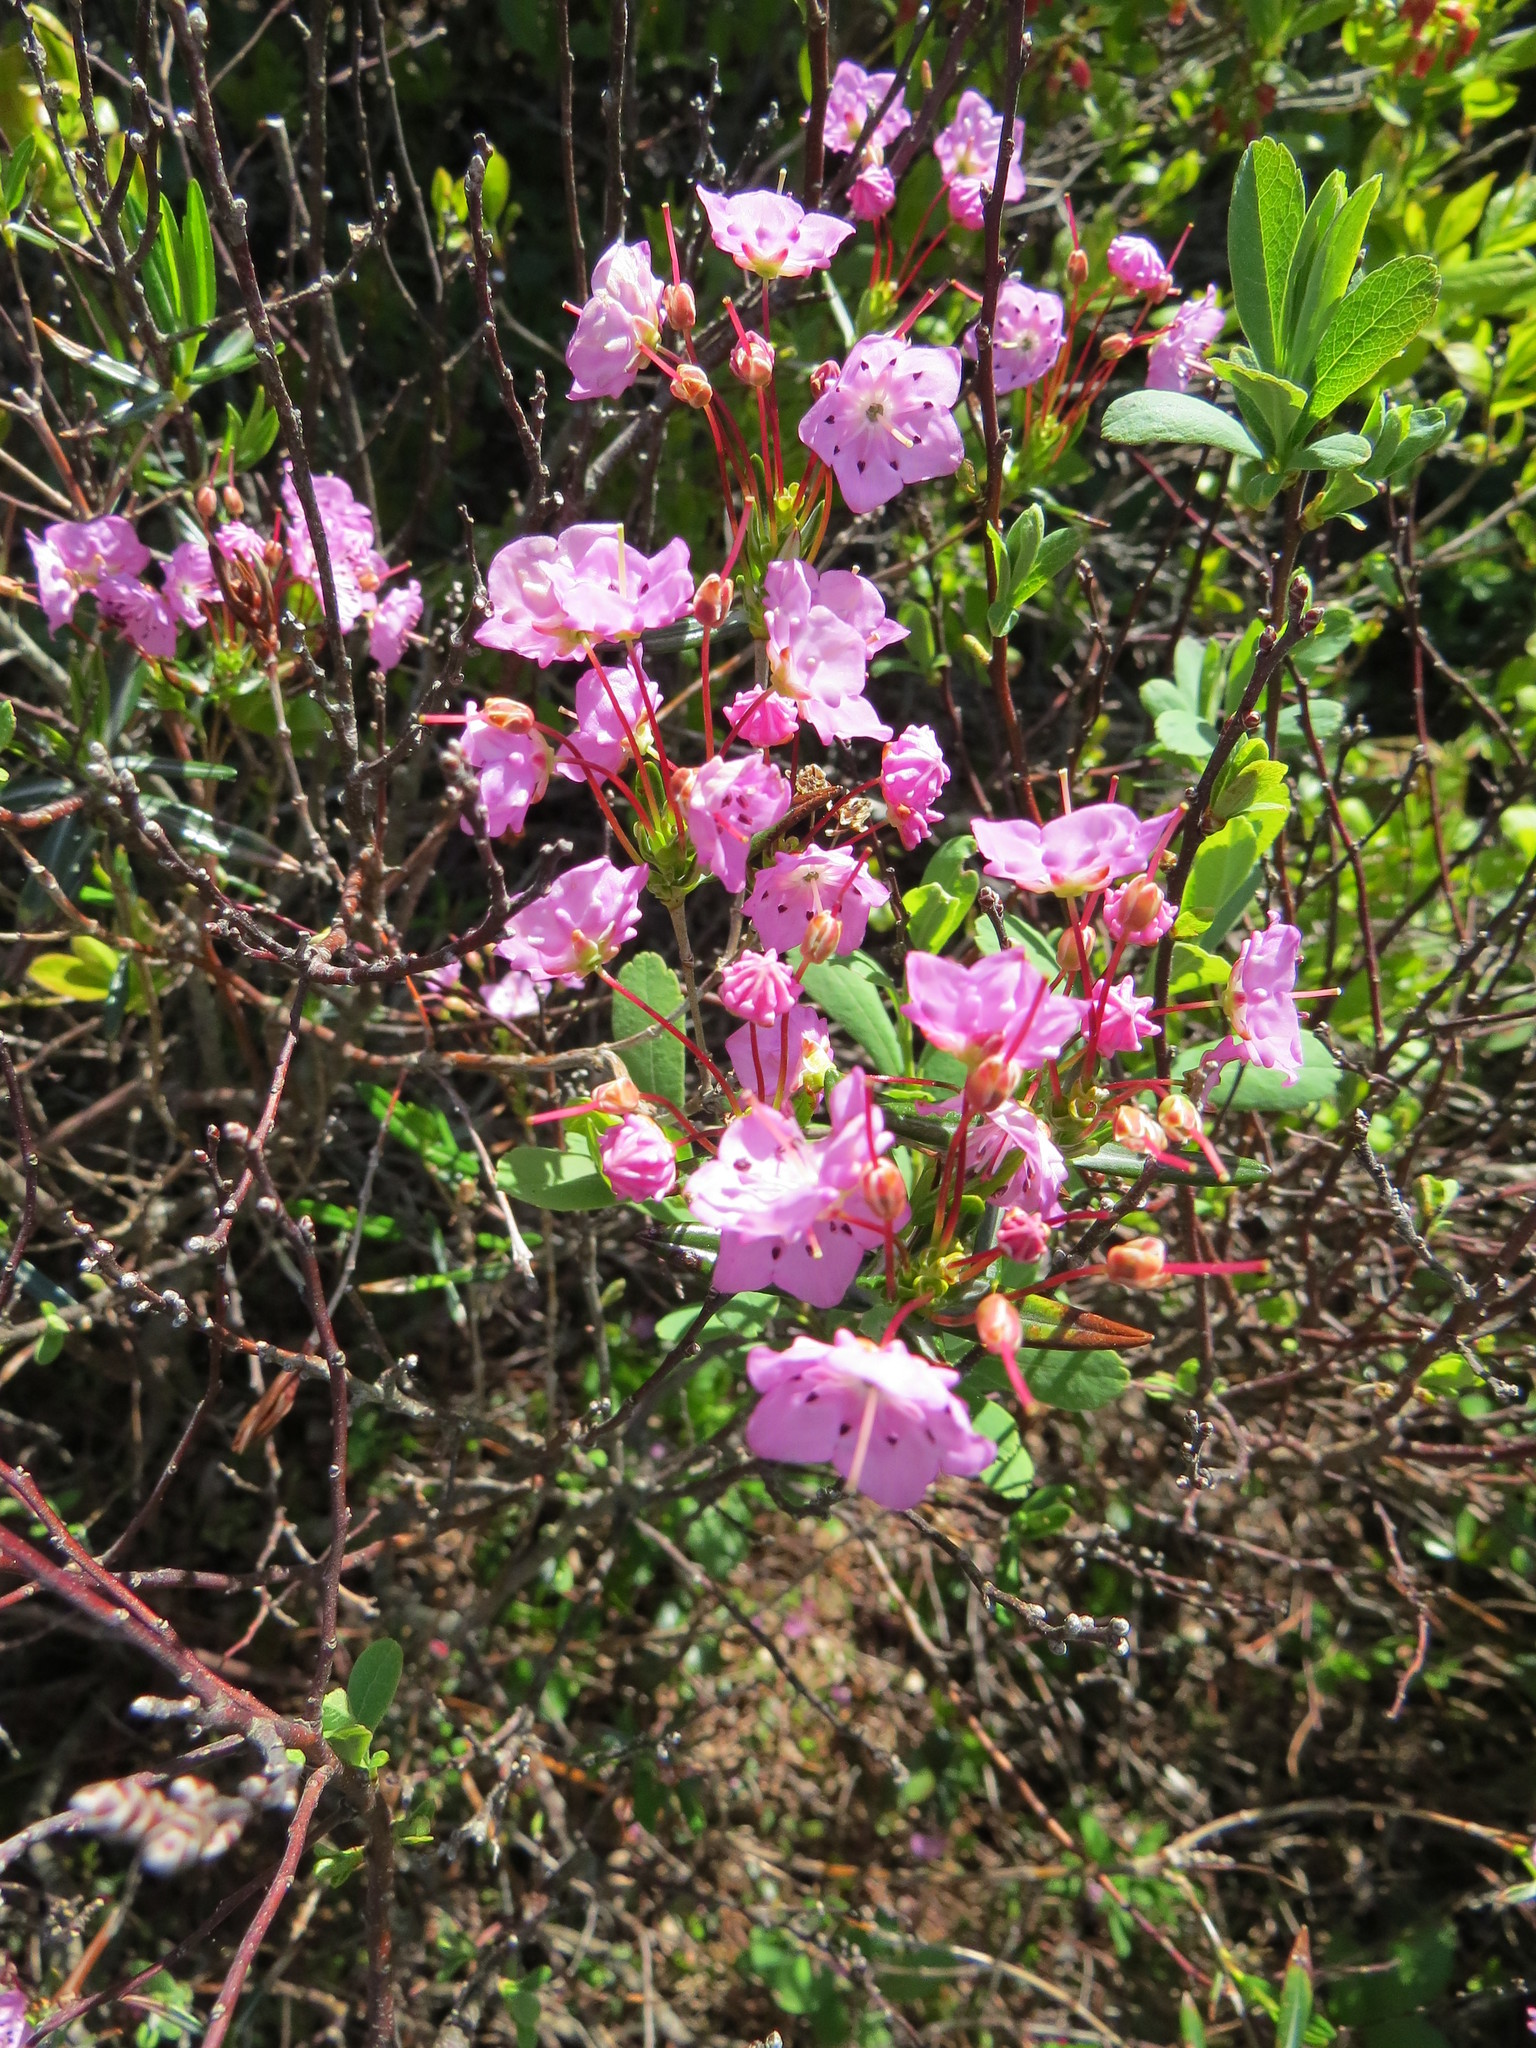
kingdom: Plantae
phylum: Tracheophyta
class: Magnoliopsida
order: Ericales
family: Ericaceae
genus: Kalmia
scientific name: Kalmia polifolia
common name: Bog-laurel
